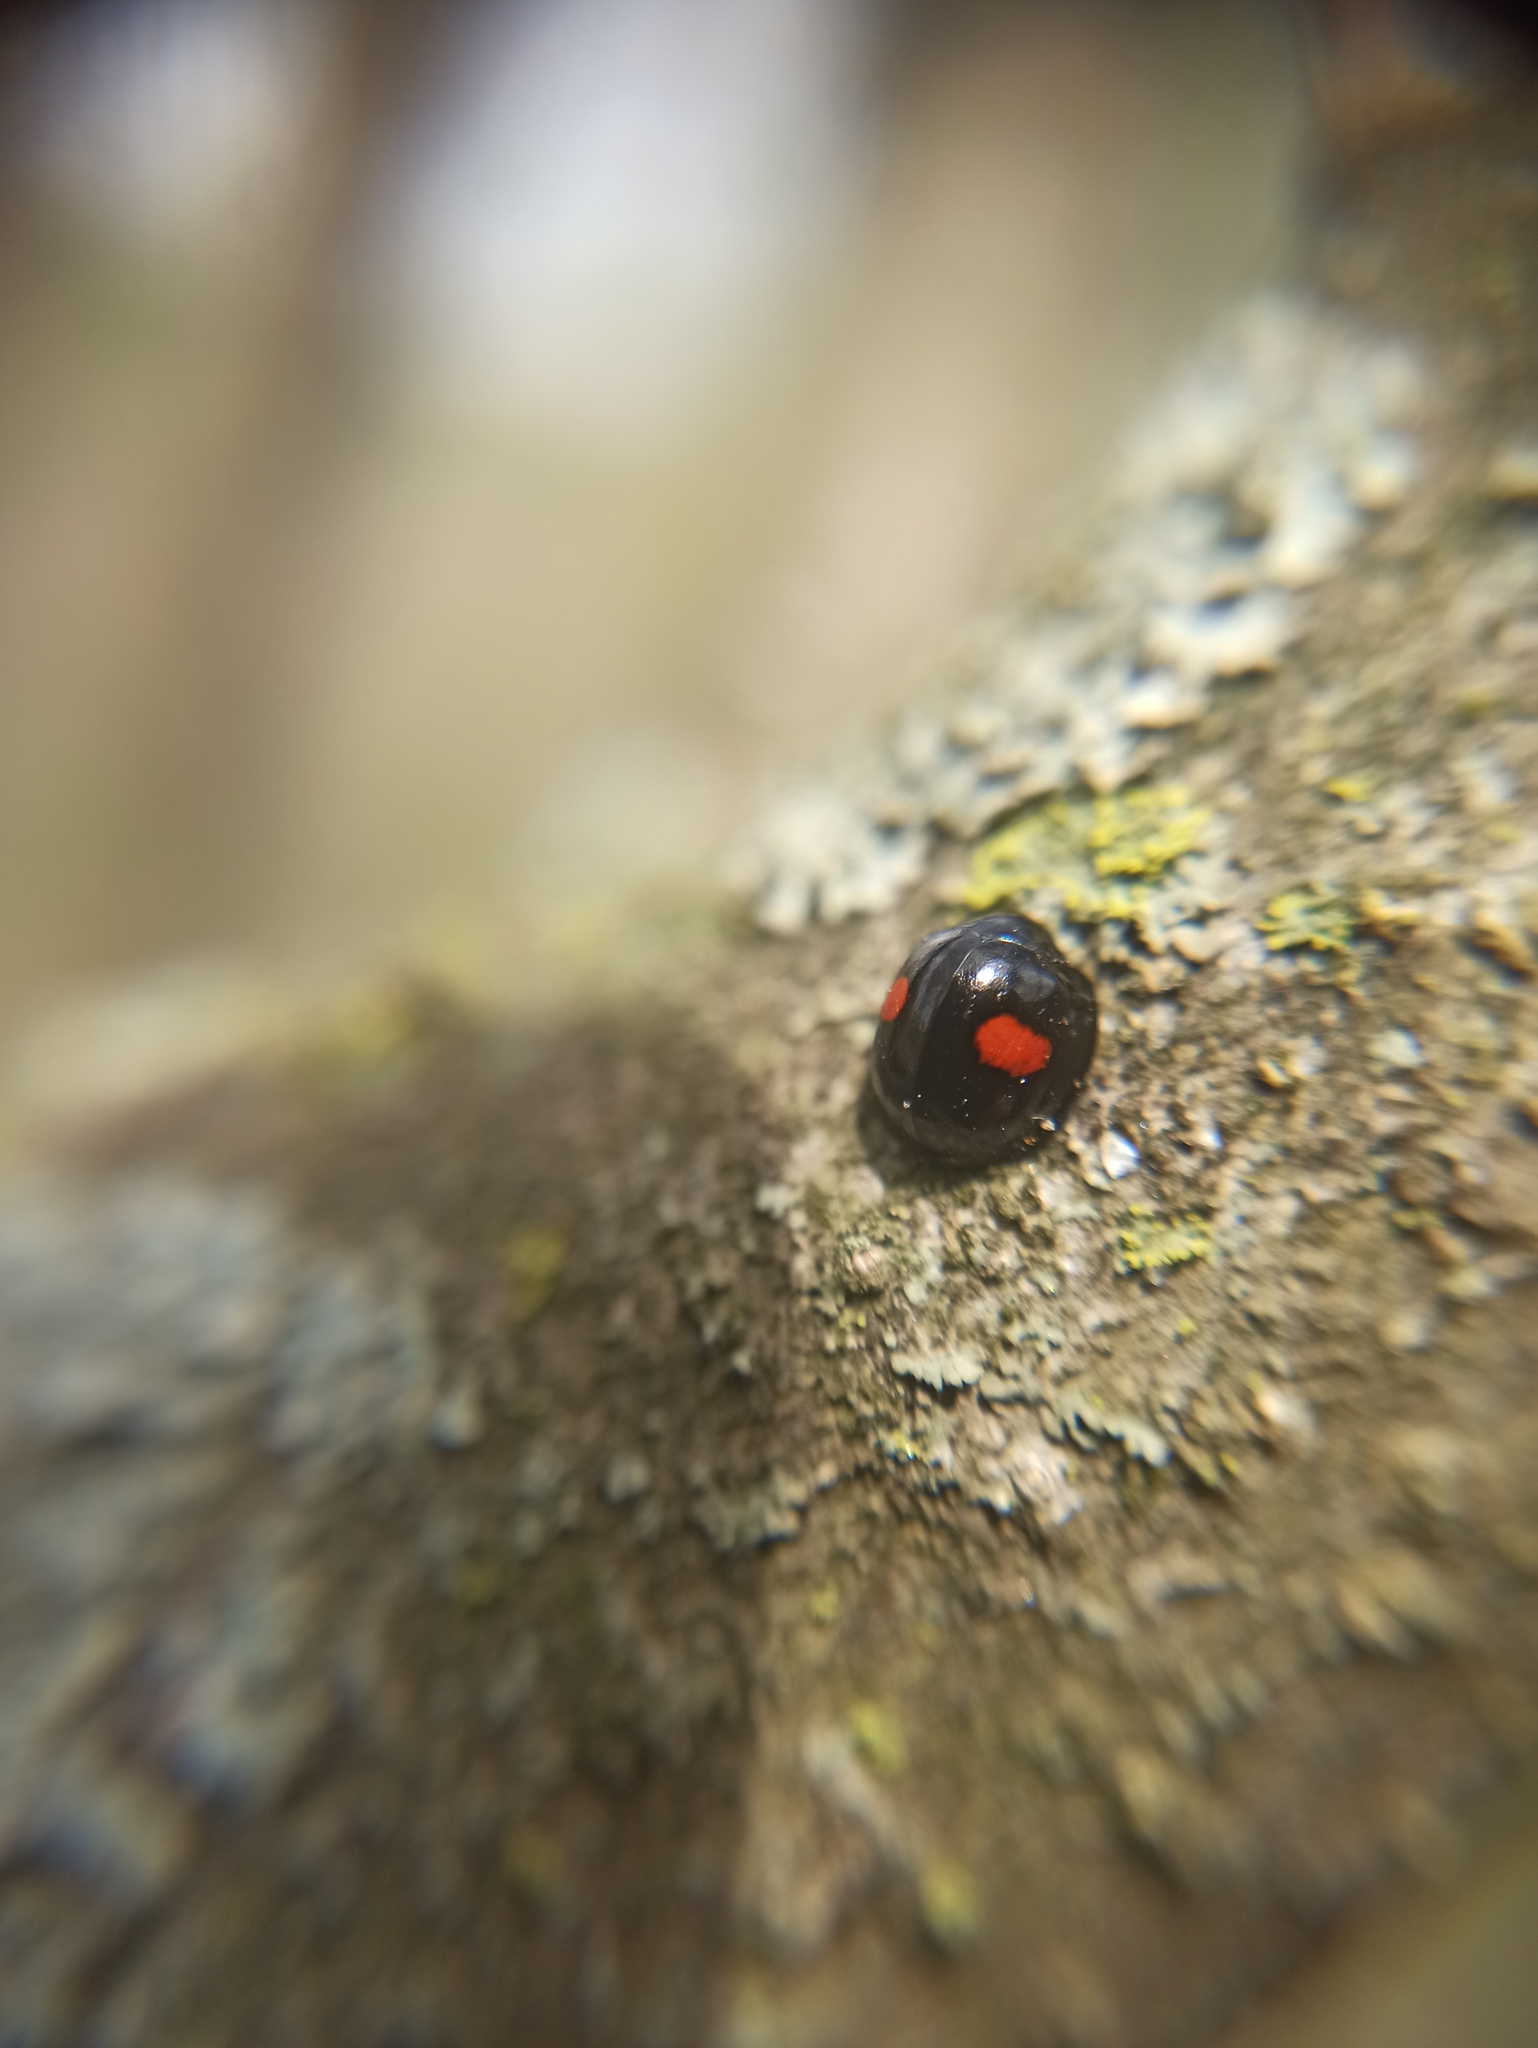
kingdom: Animalia
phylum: Arthropoda
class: Insecta
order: Coleoptera
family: Coccinellidae
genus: Chilocorus
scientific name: Chilocorus renipustulatus
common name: Kidney-spot ladybird
